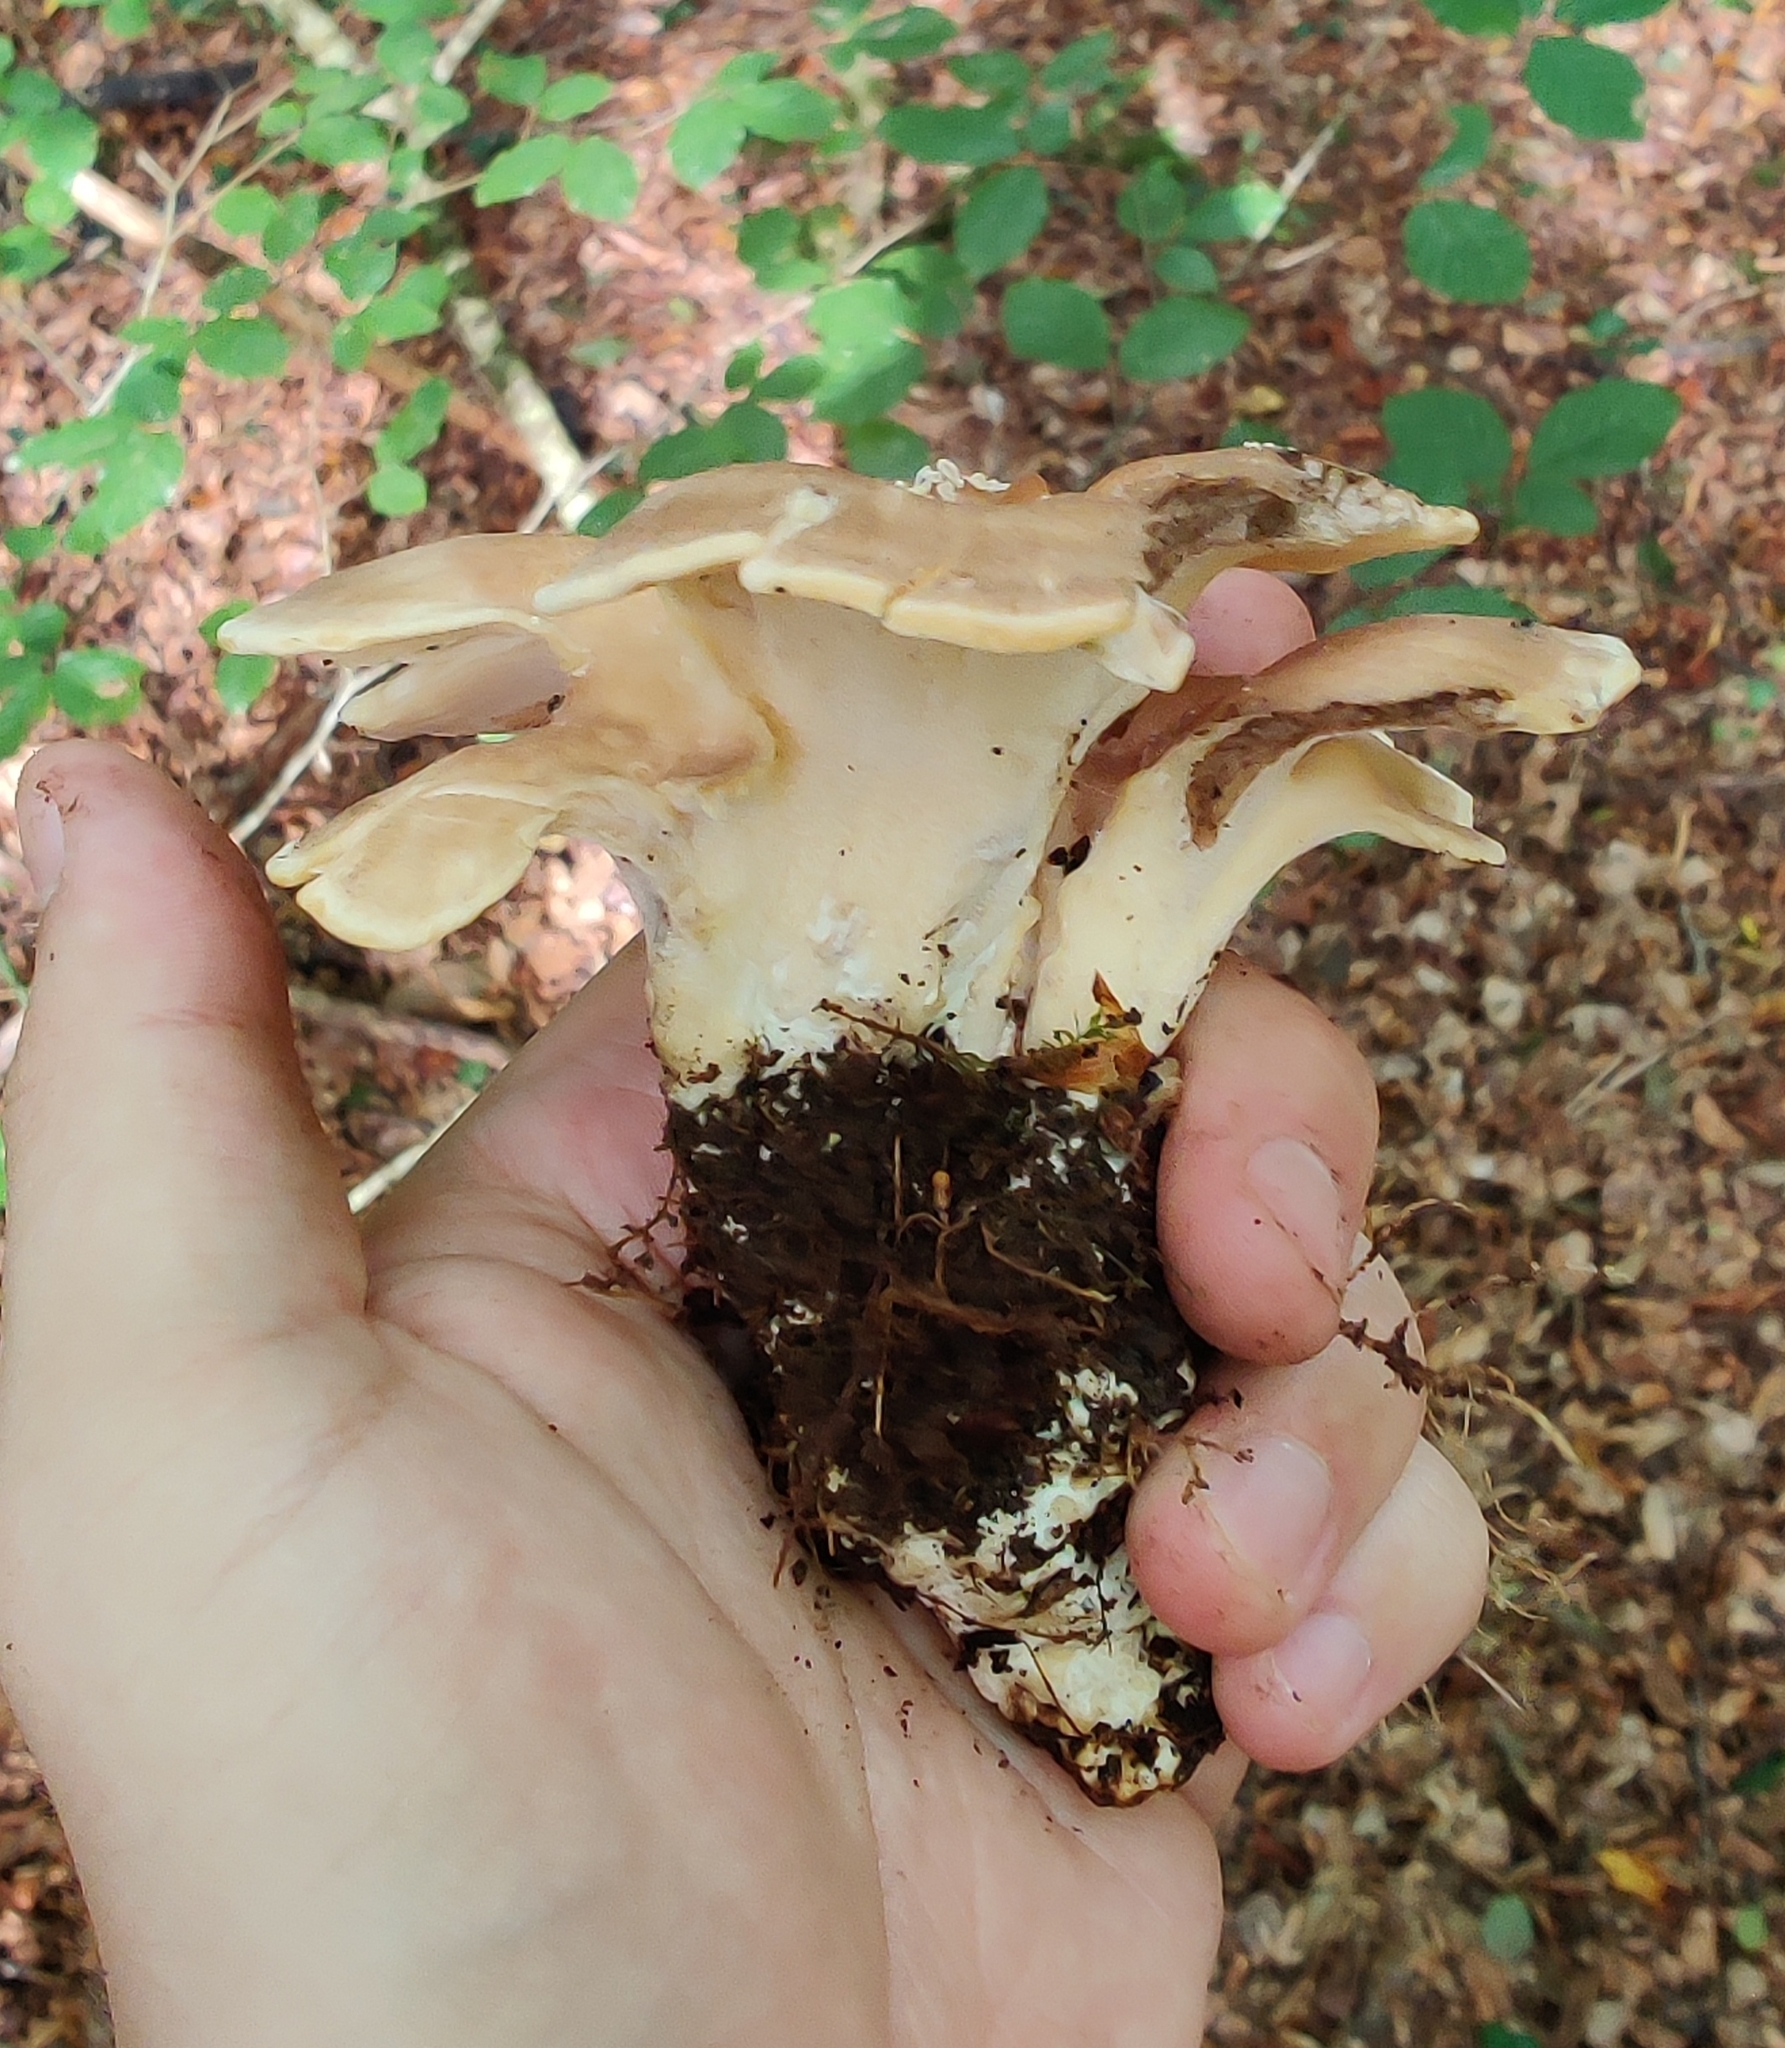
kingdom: Fungi
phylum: Basidiomycota
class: Agaricomycetes
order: Polyporales
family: Meripilaceae
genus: Meripilus
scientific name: Meripilus giganteus
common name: Giant polypore
